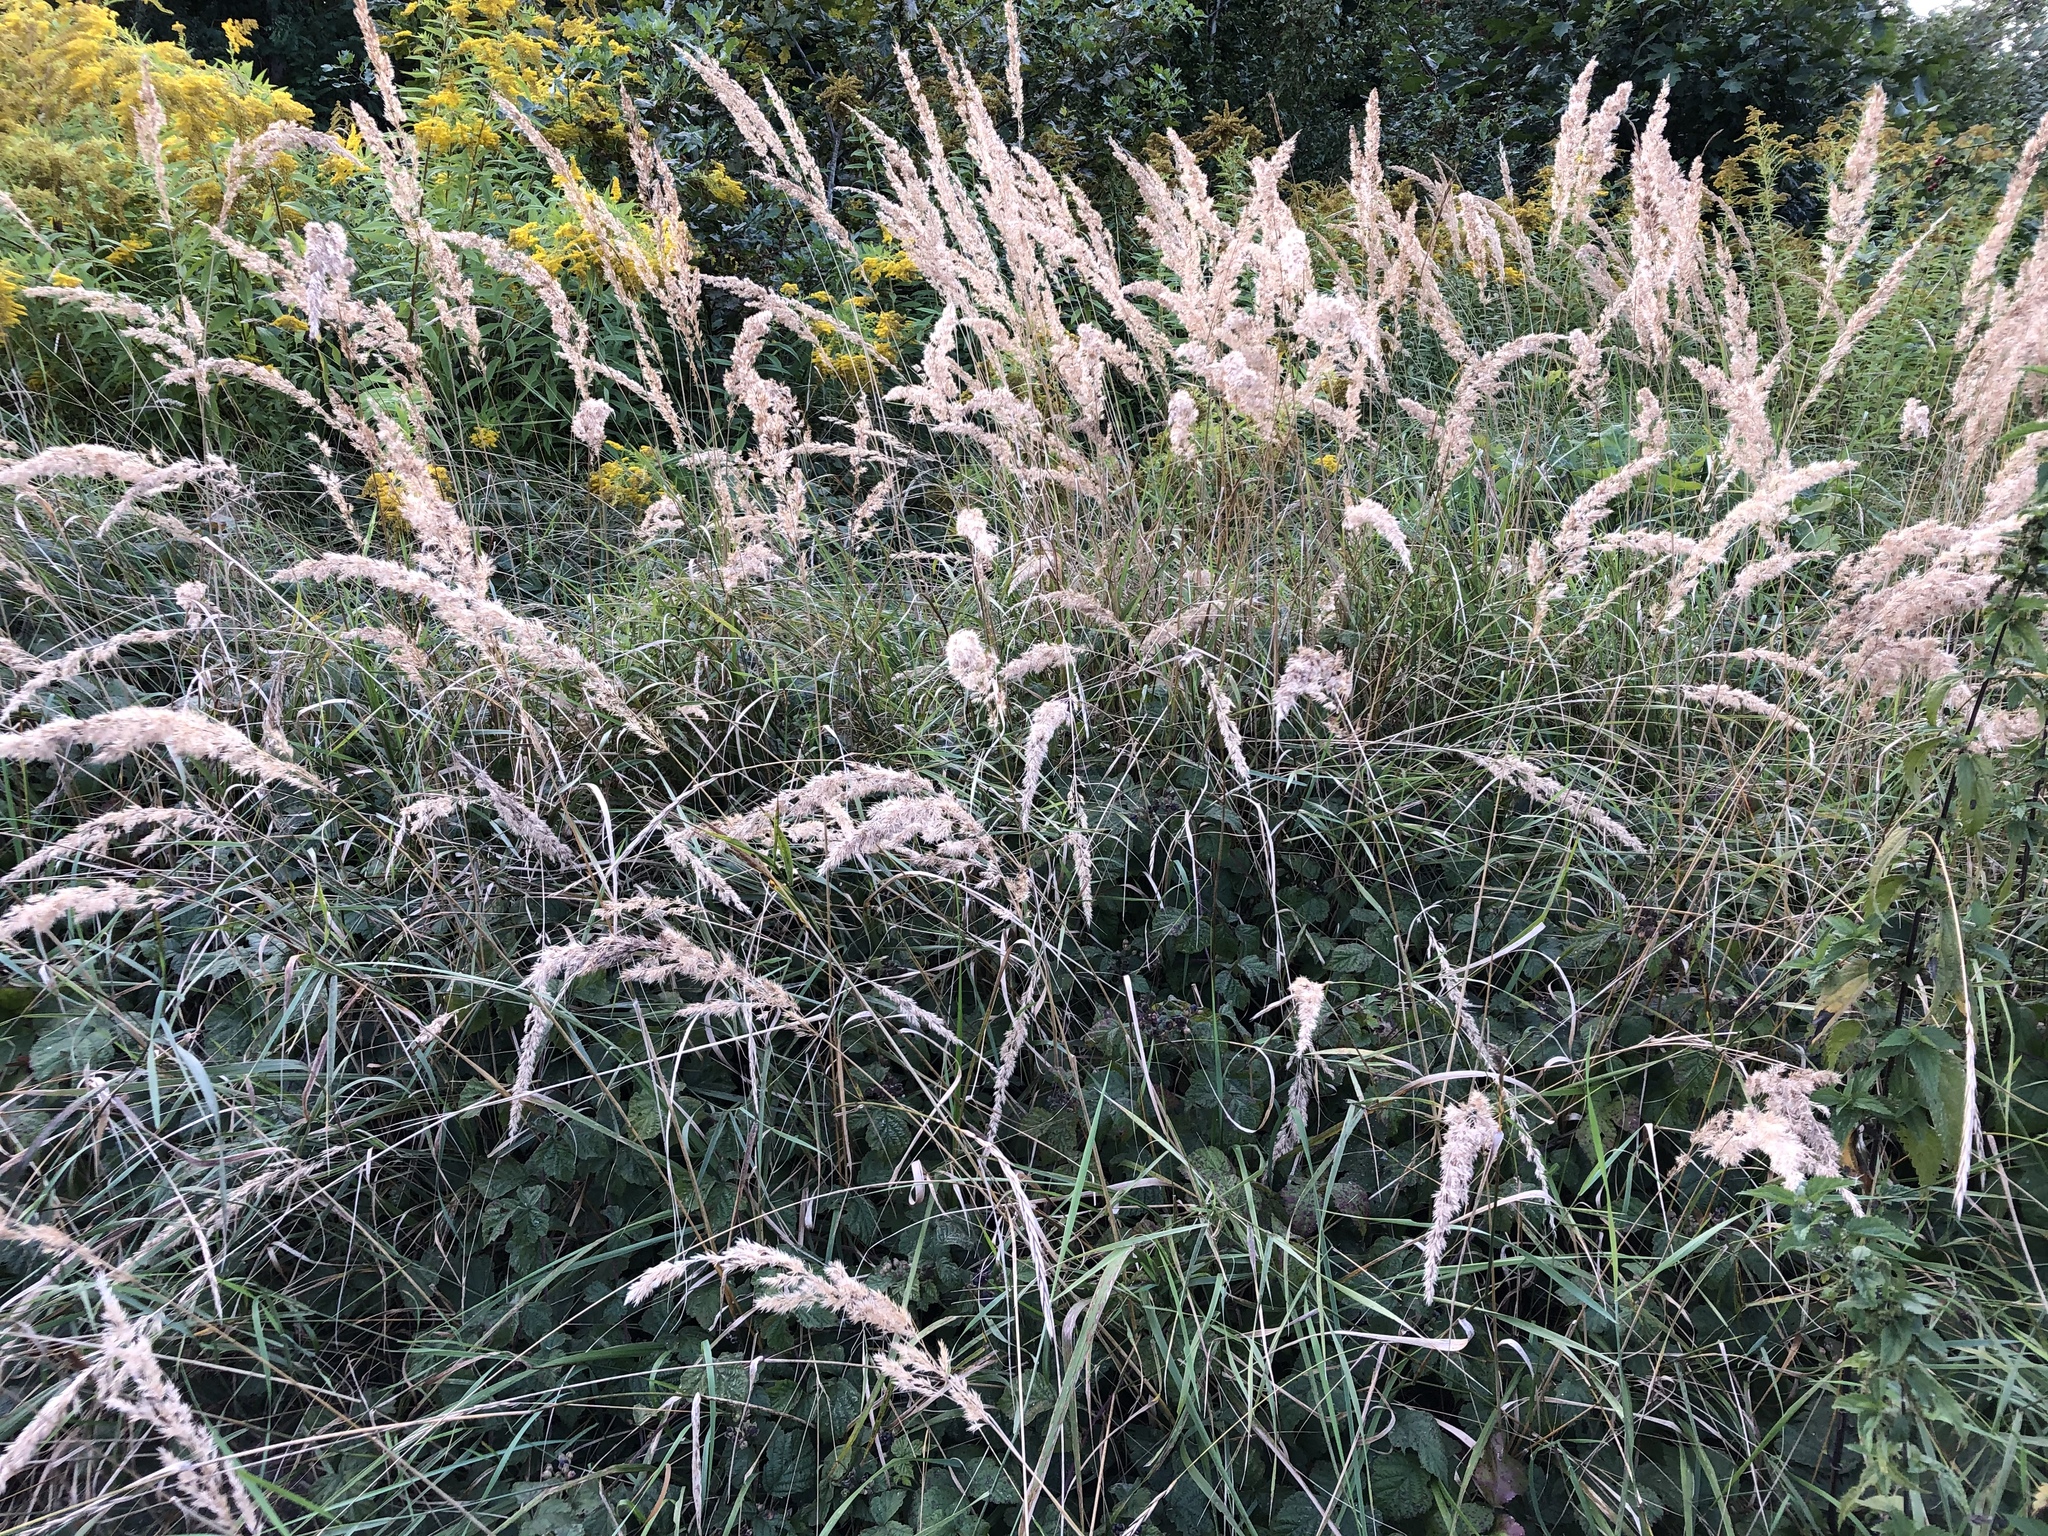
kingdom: Plantae
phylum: Tracheophyta
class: Liliopsida
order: Poales
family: Poaceae
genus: Calamagrostis
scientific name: Calamagrostis epigejos
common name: Wood small-reed
